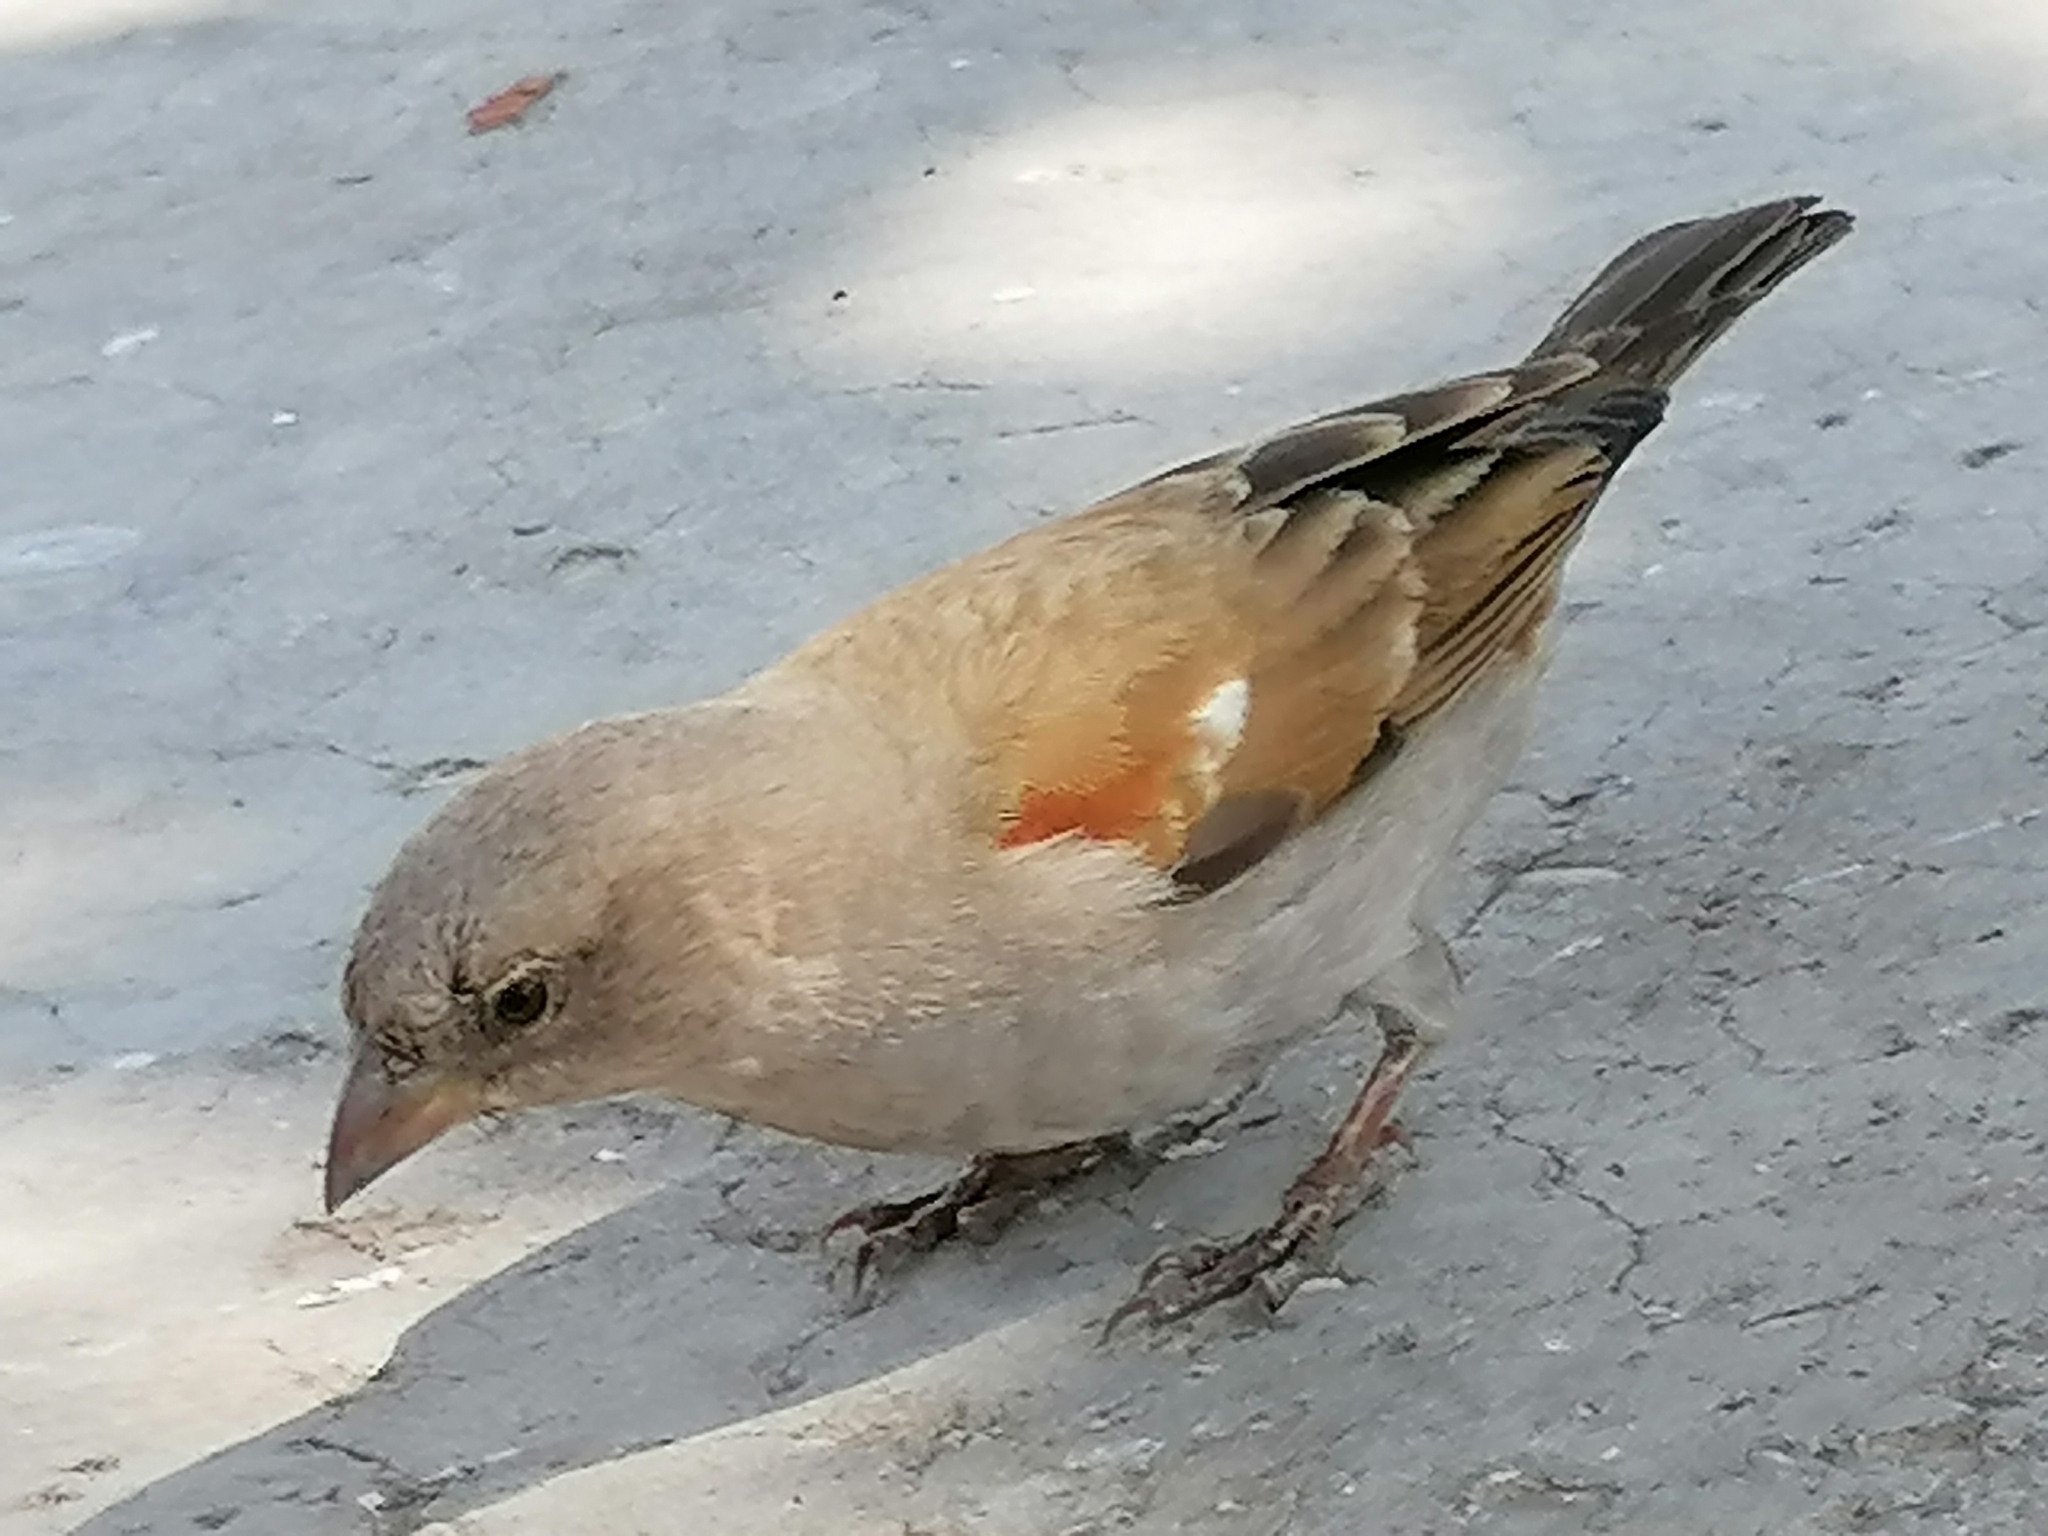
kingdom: Animalia
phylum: Chordata
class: Aves
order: Passeriformes
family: Passeridae
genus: Passer
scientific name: Passer diffusus
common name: Southern grey-headed sparrow
